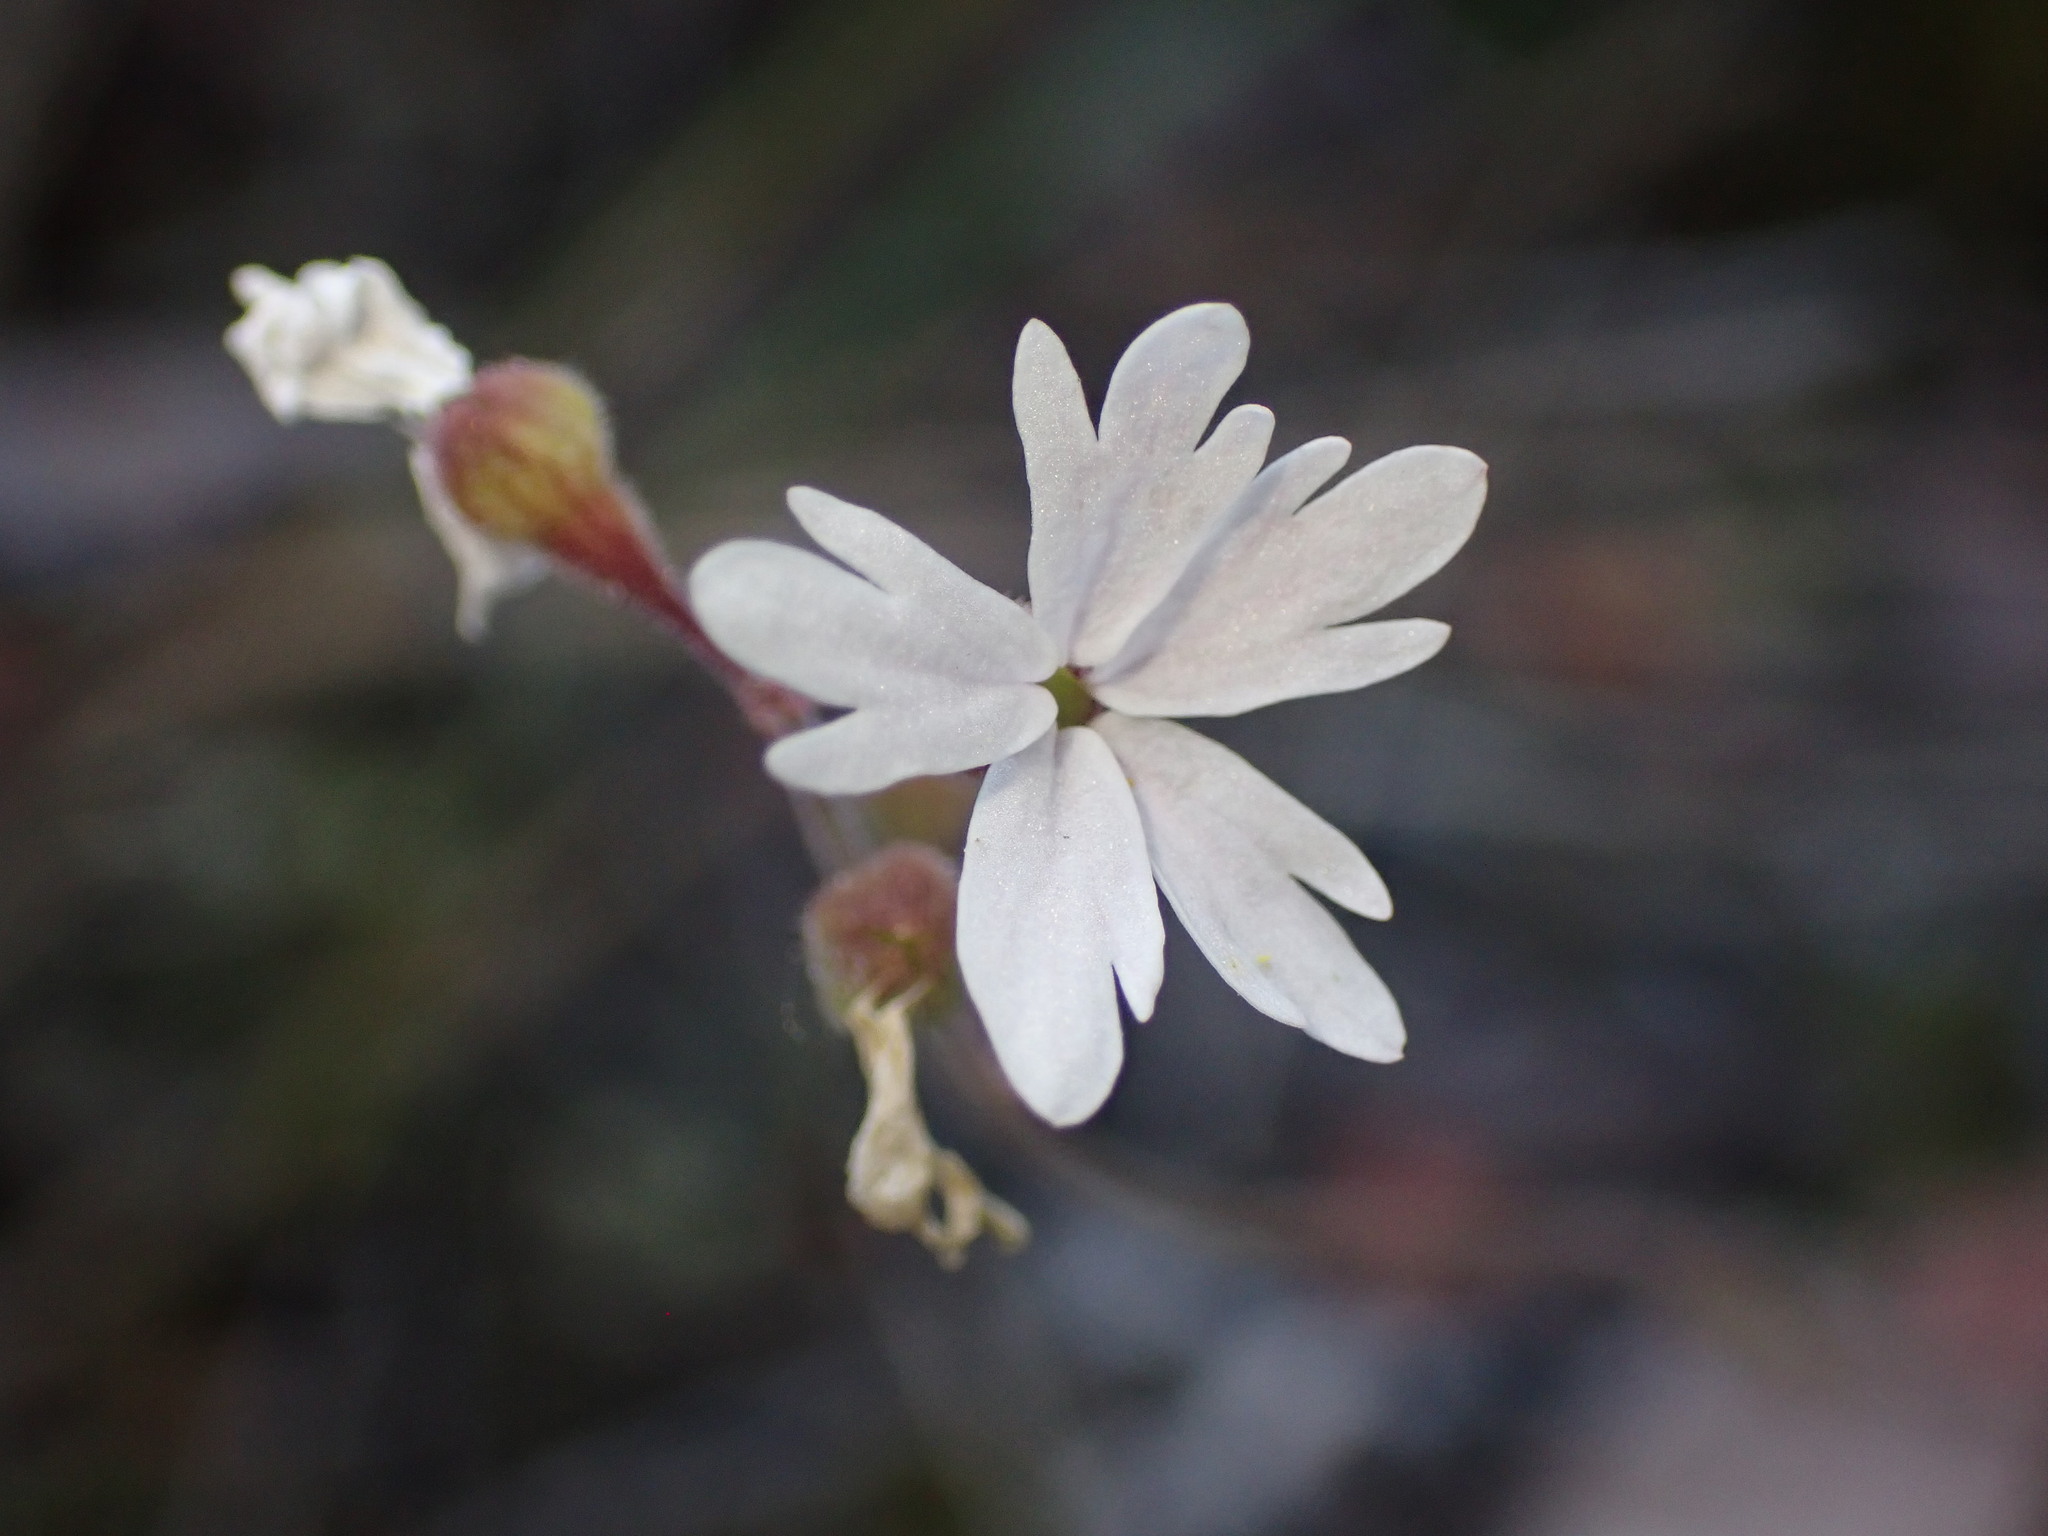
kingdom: Plantae
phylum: Tracheophyta
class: Magnoliopsida
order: Saxifragales
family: Saxifragaceae
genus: Lithophragma
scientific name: Lithophragma parviflorum
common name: Small-flowered fringe-cup
